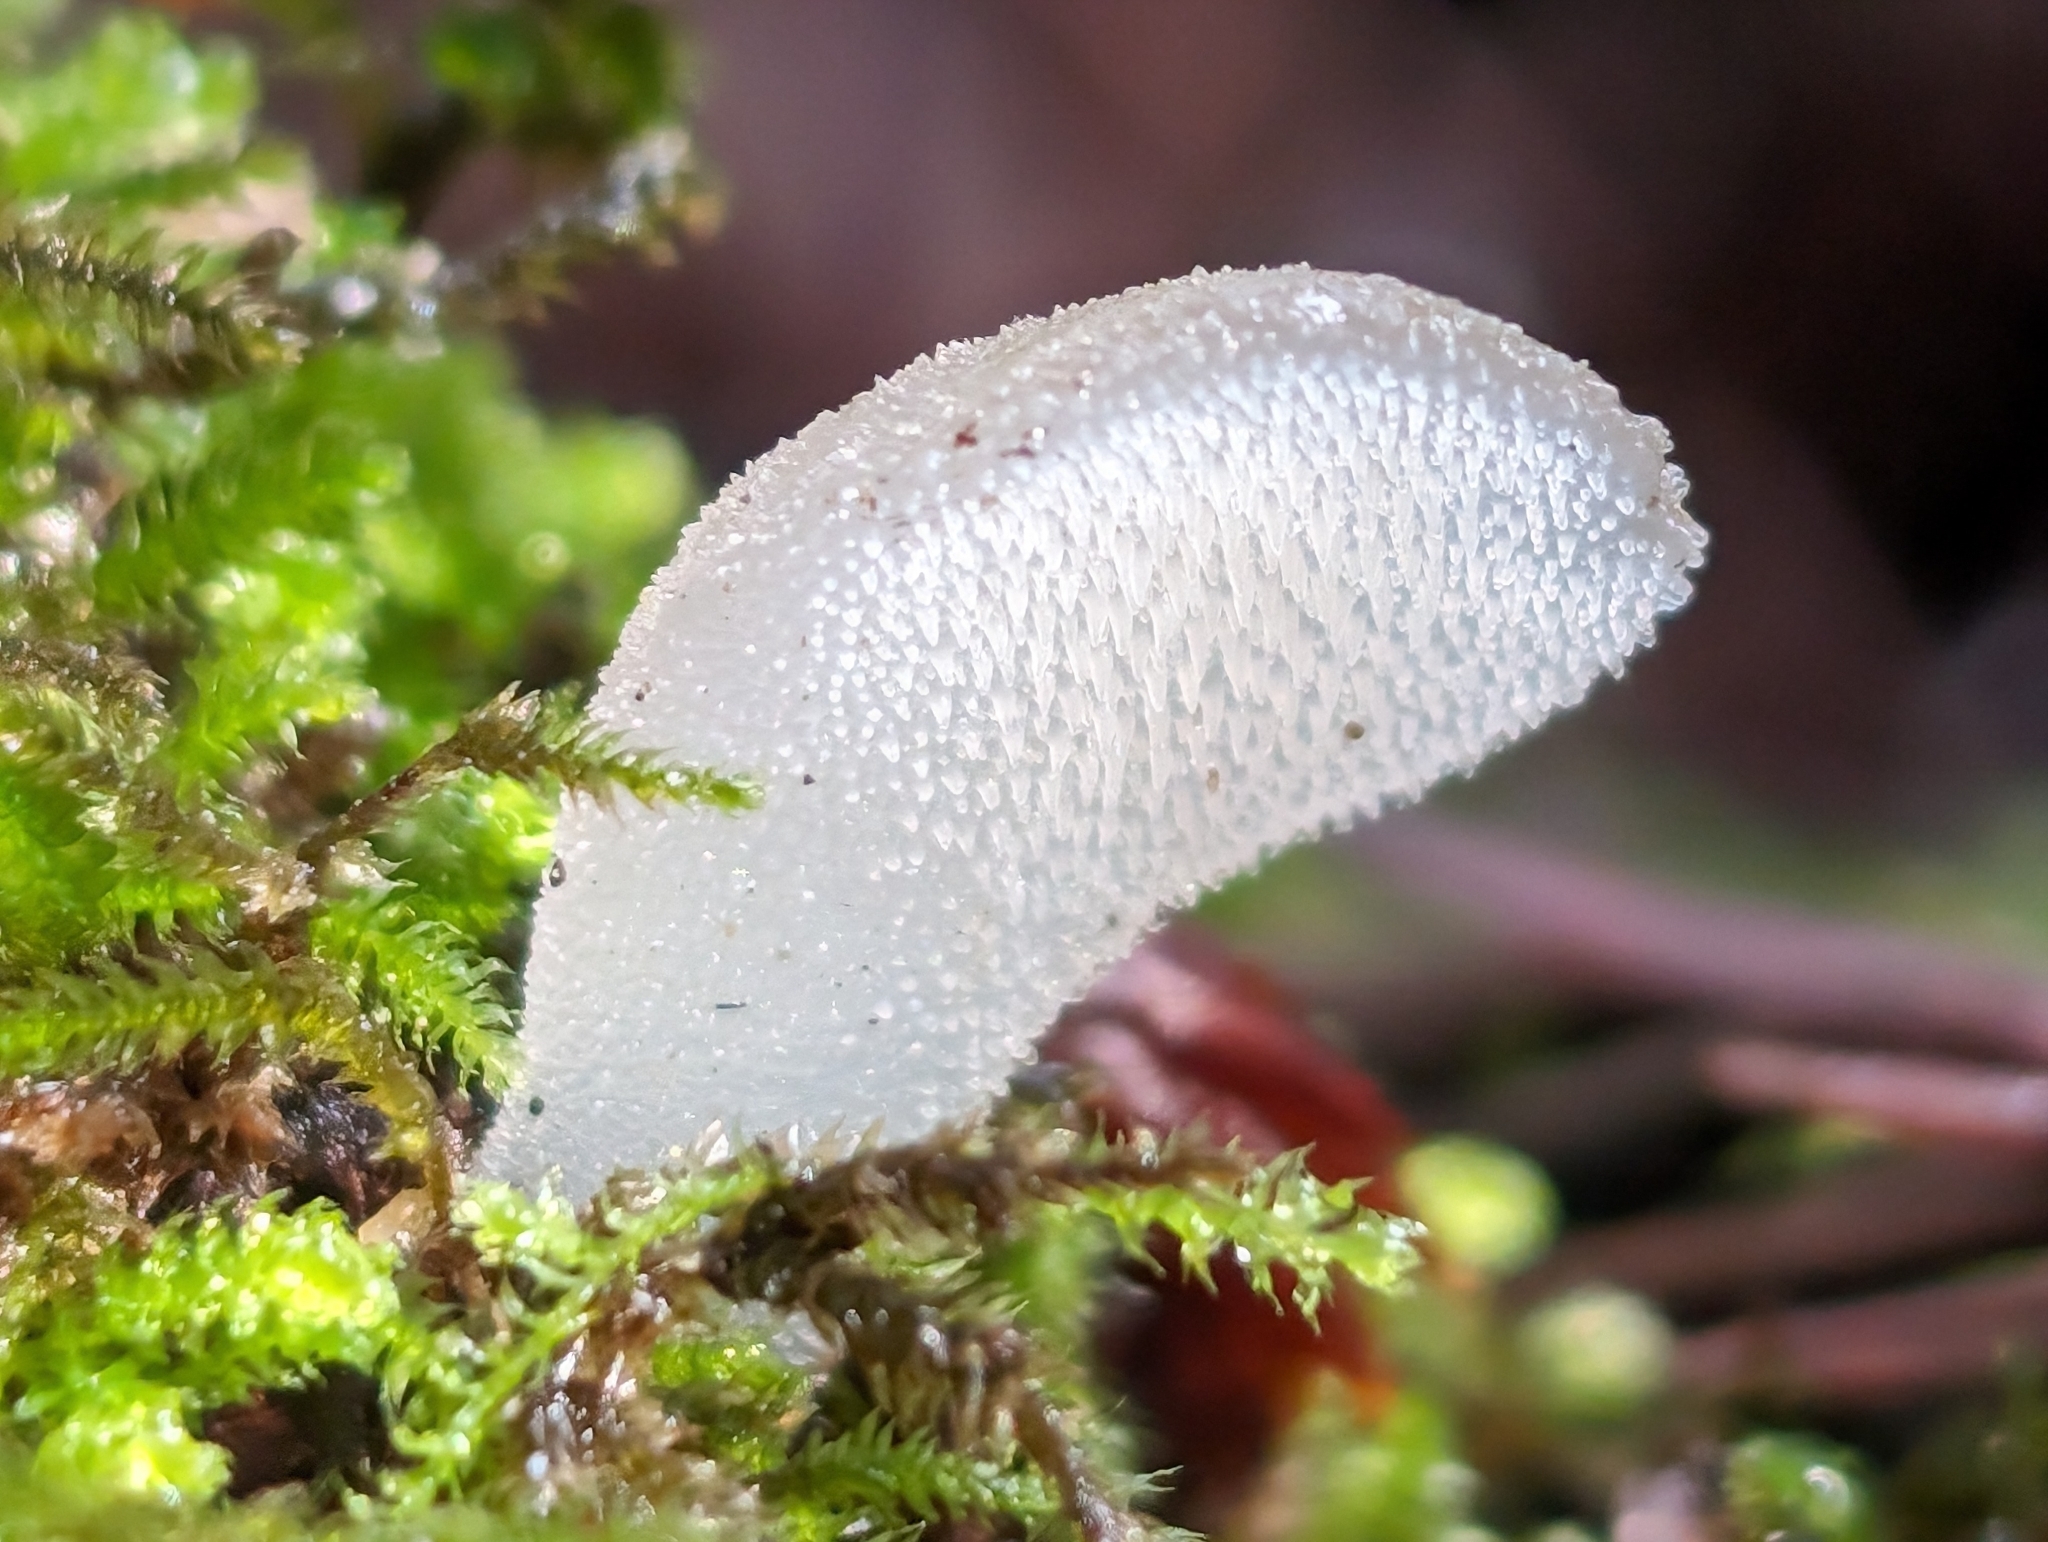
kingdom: Fungi
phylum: Basidiomycota
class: Agaricomycetes
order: Auriculariales
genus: Pseudohydnum
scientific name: Pseudohydnum gelatinosum
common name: Jelly tongue
